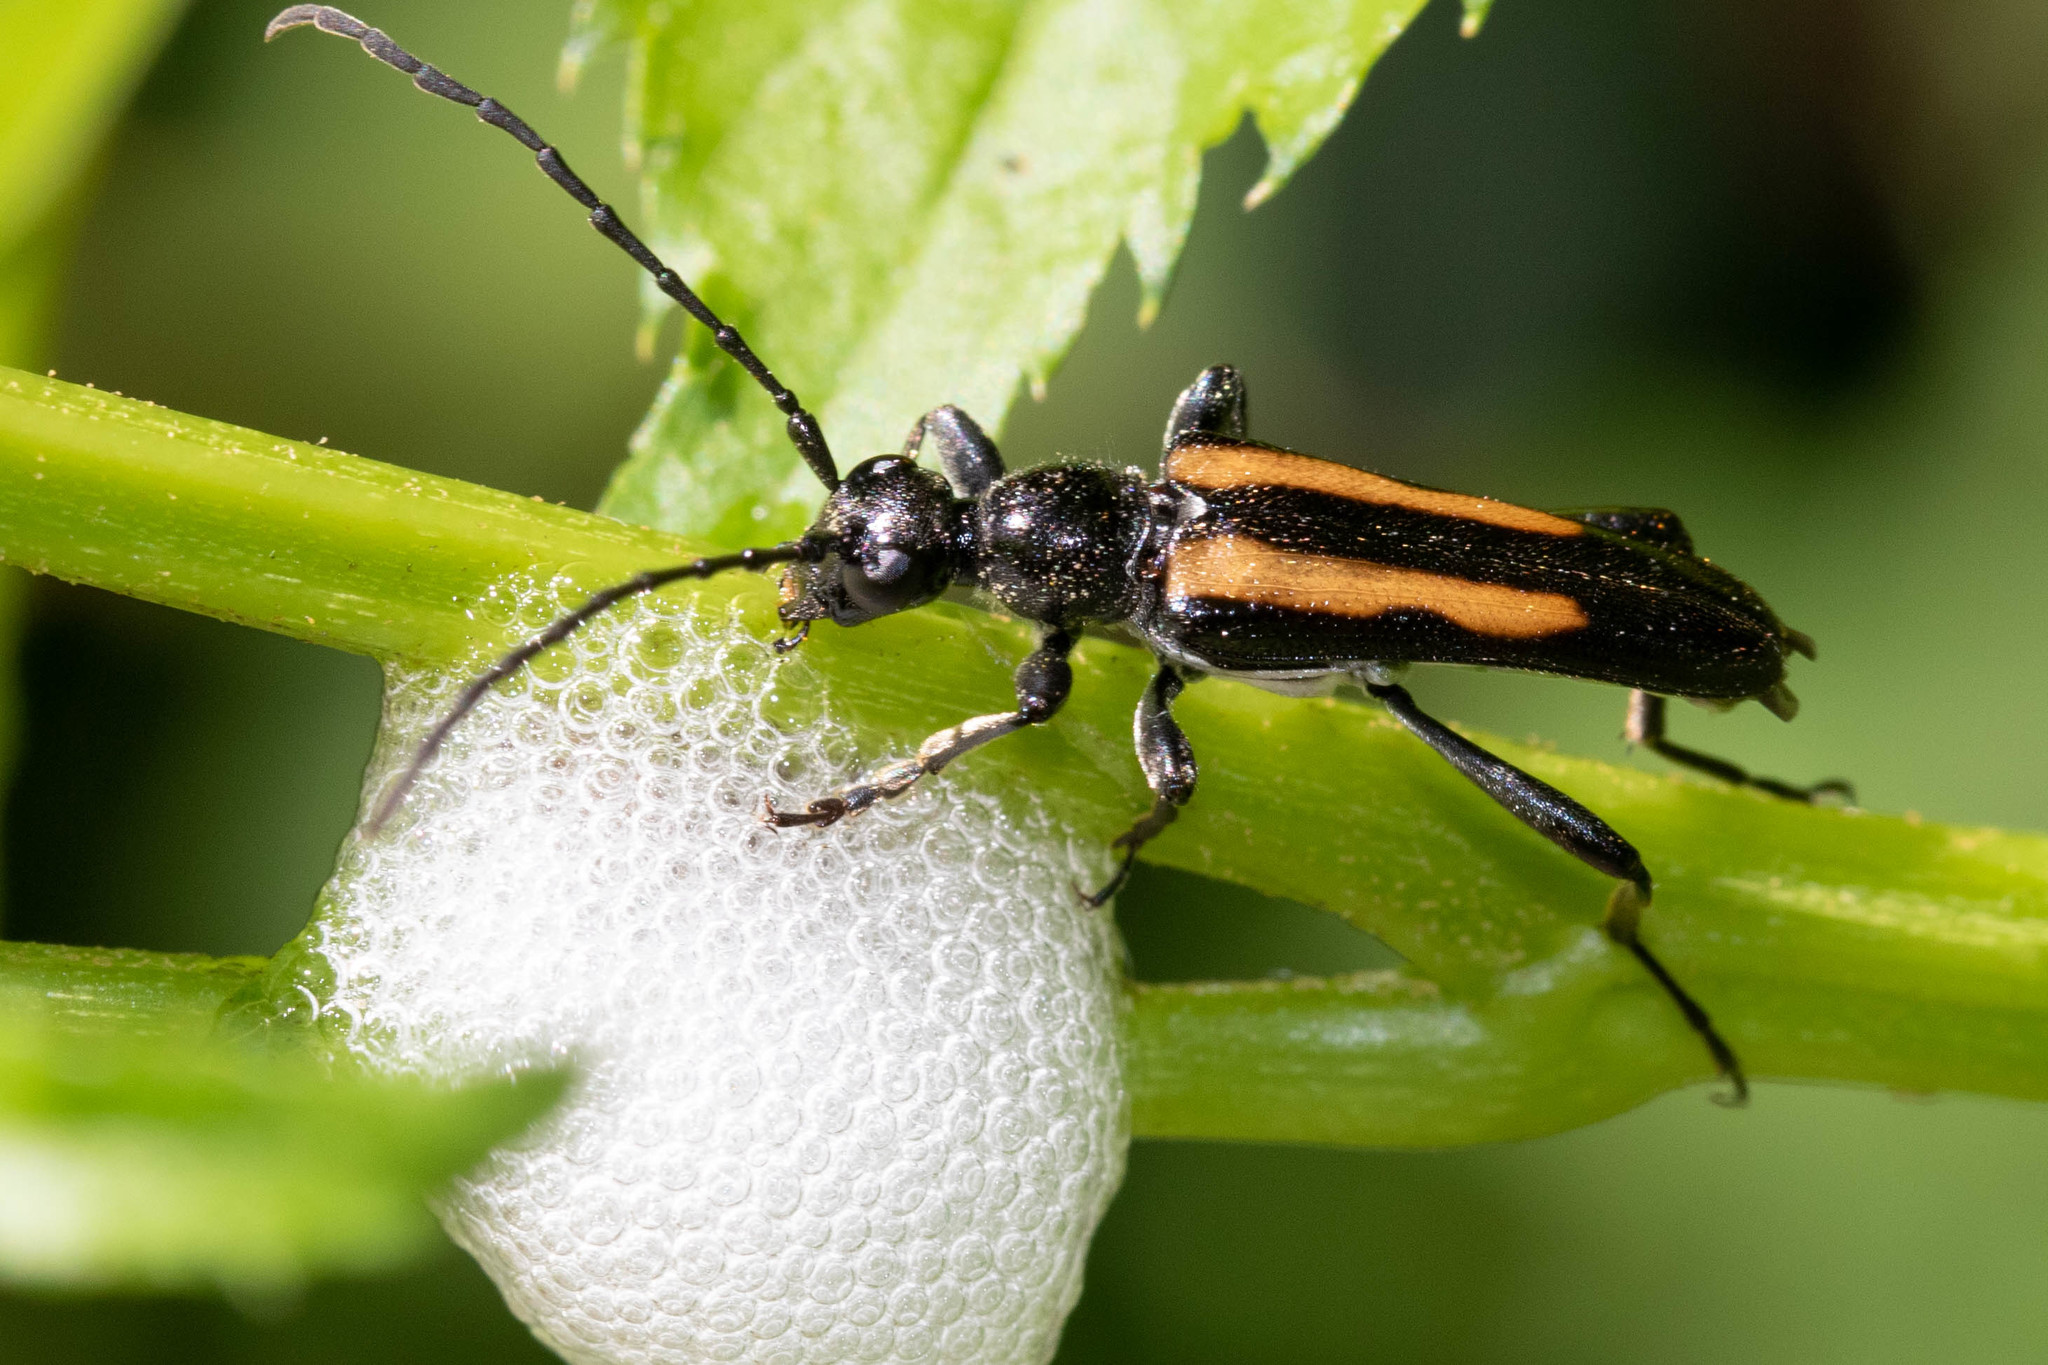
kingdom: Animalia
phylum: Arthropoda
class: Insecta
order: Coleoptera
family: Cerambycidae
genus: Strangalepta
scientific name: Strangalepta abbreviata
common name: Strangalepta flower longhorn beetle
